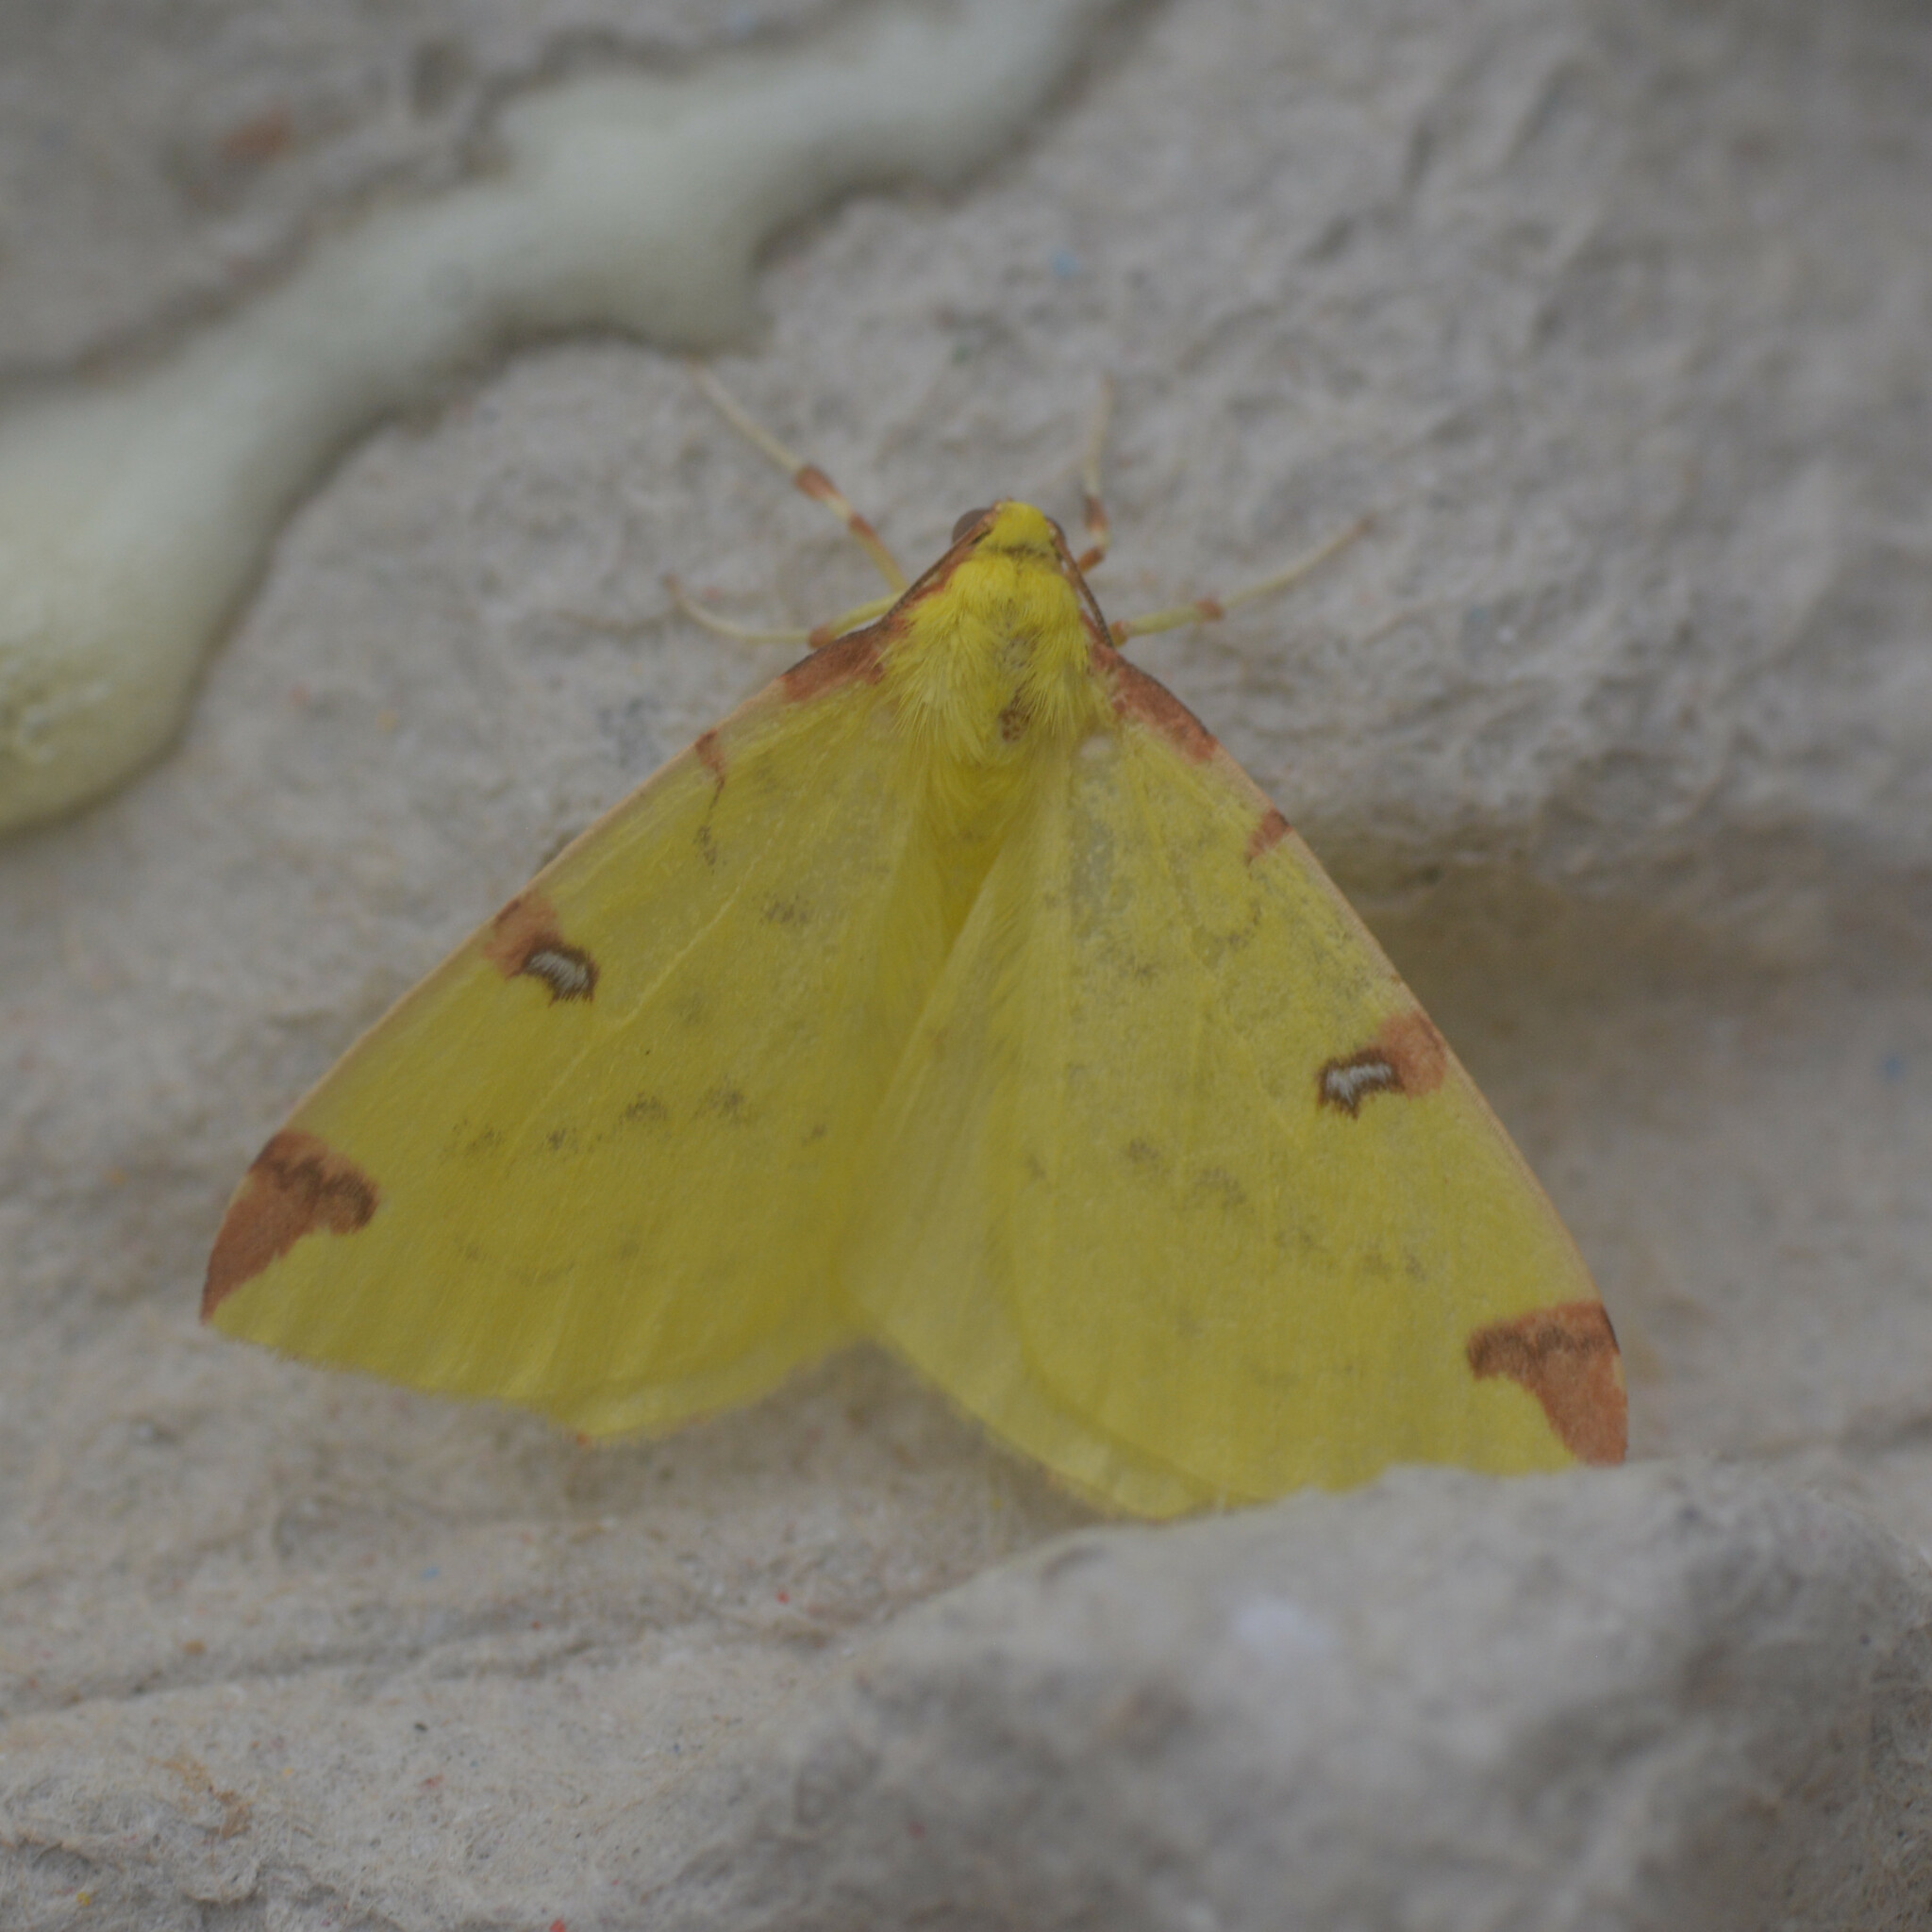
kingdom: Animalia
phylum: Arthropoda
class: Insecta
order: Lepidoptera
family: Geometridae
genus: Opisthograptis
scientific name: Opisthograptis luteolata
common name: Brimstone moth
